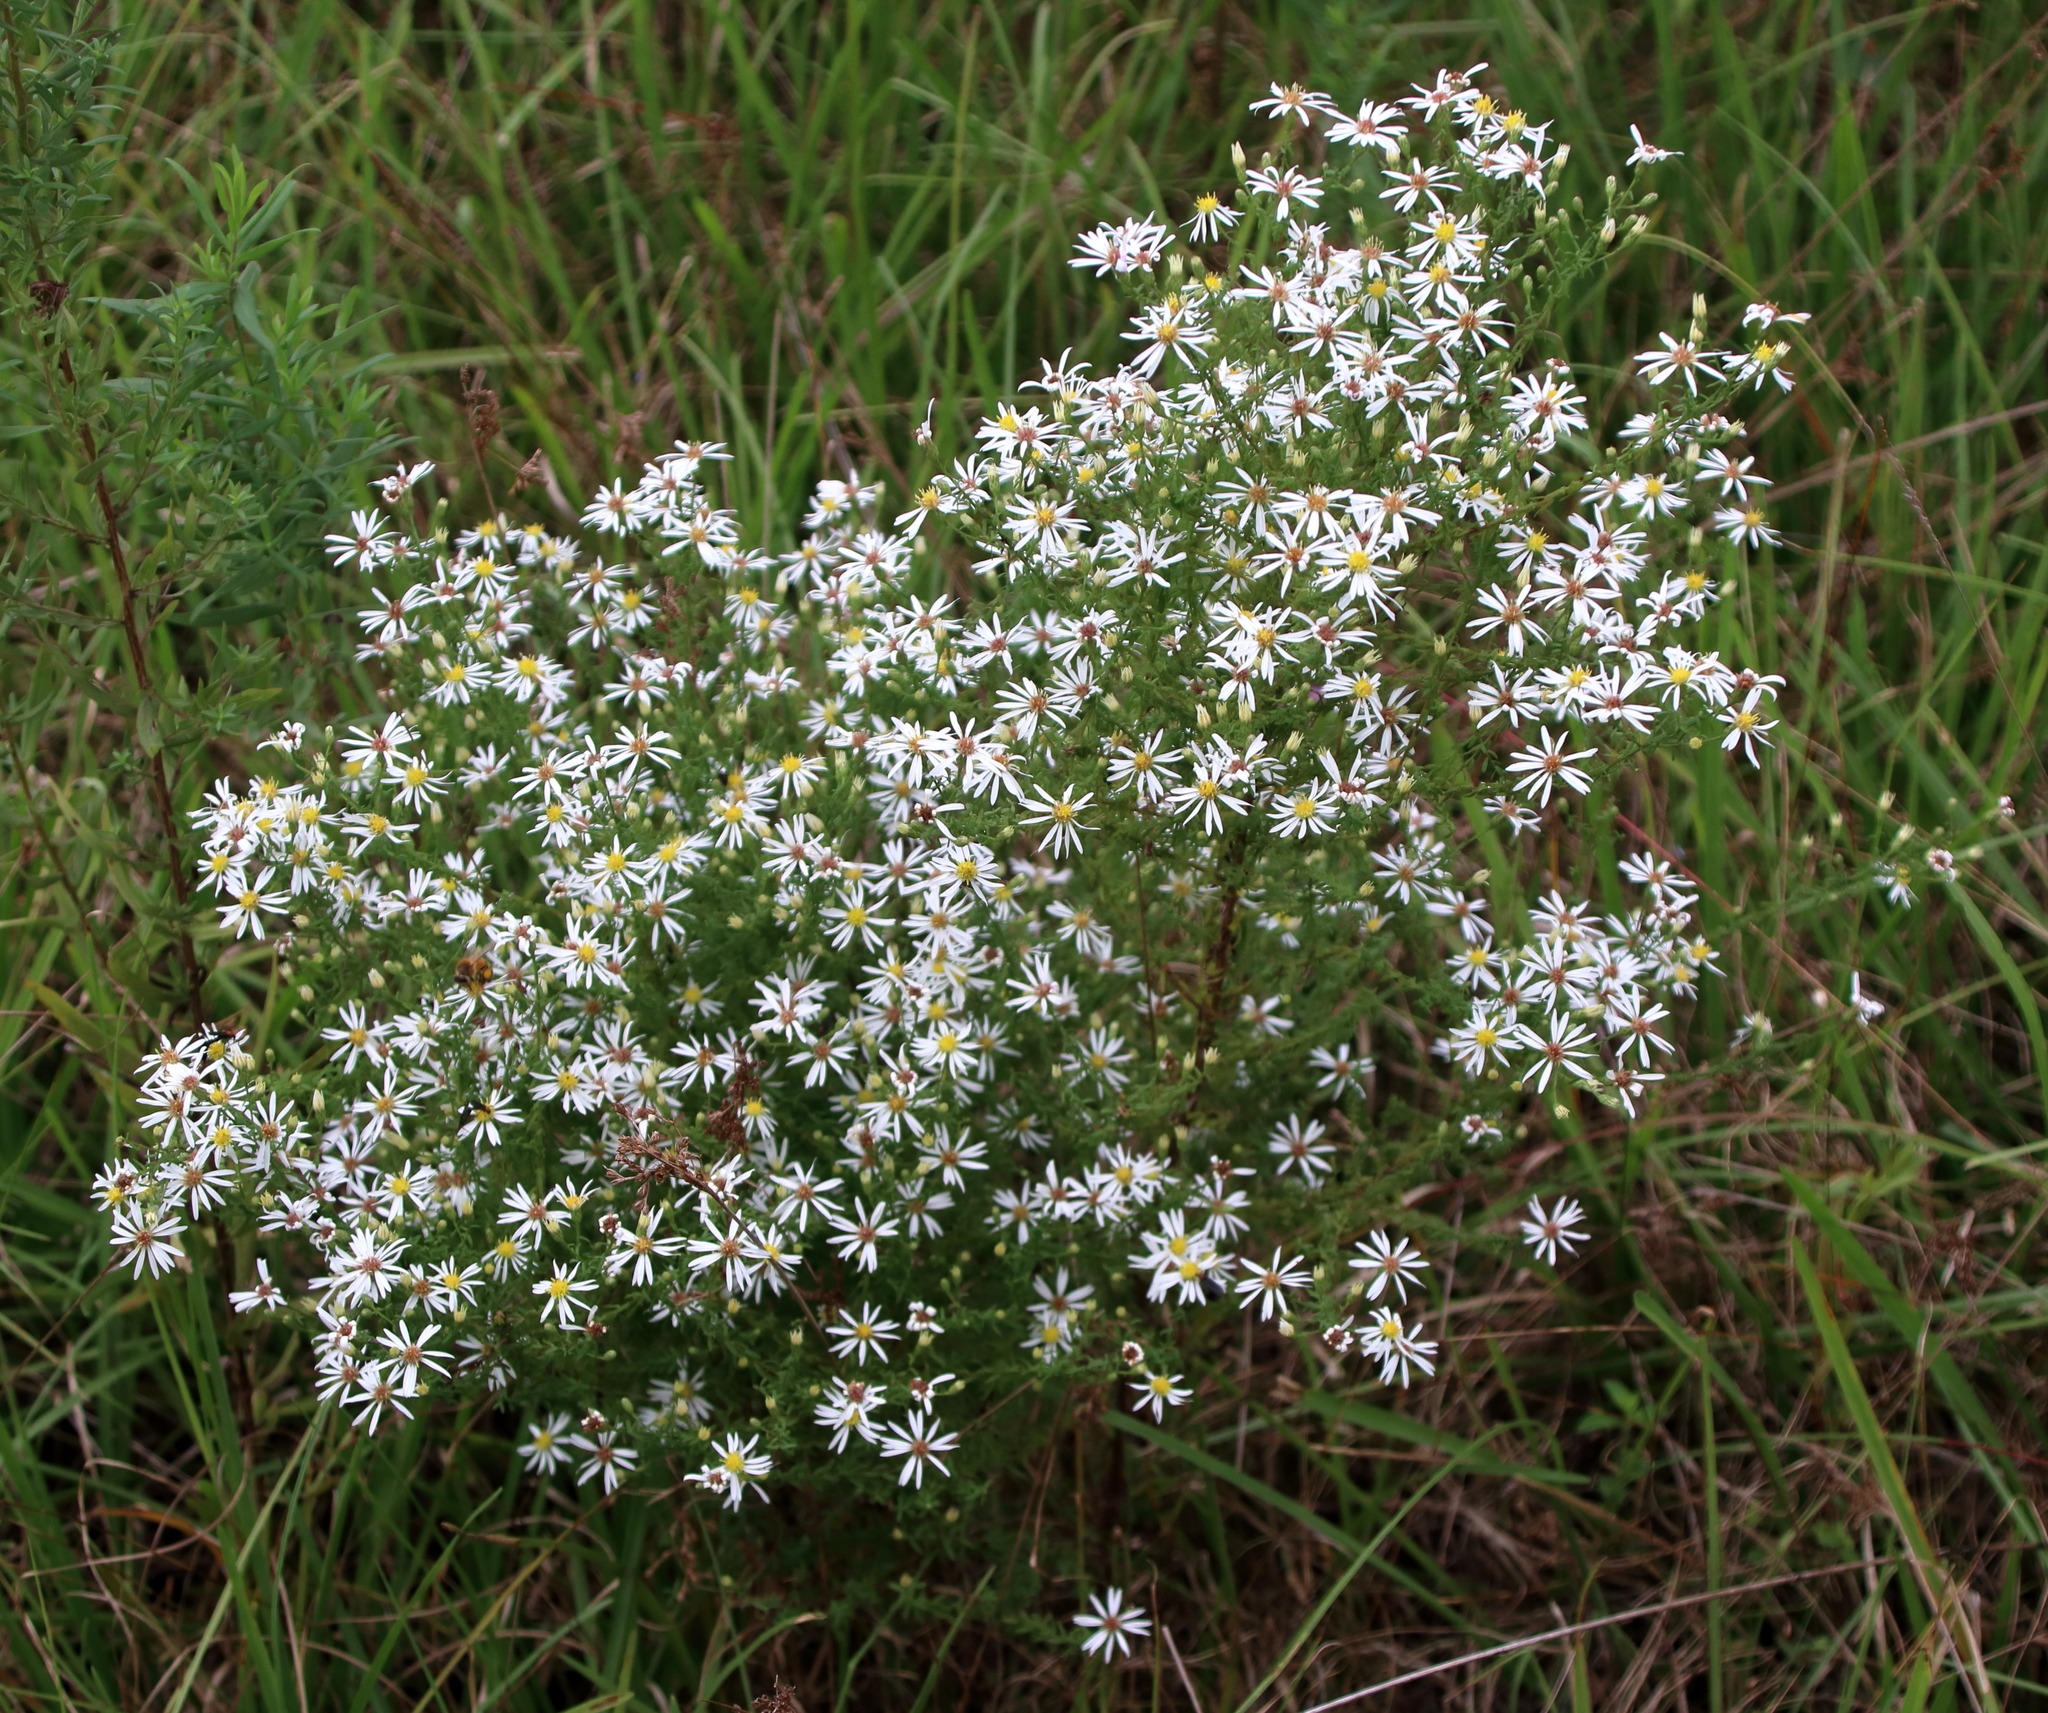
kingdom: Plantae
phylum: Tracheophyta
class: Magnoliopsida
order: Asterales
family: Asteraceae
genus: Symphyotrichum
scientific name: Symphyotrichum dumosum
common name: Bushy aster
